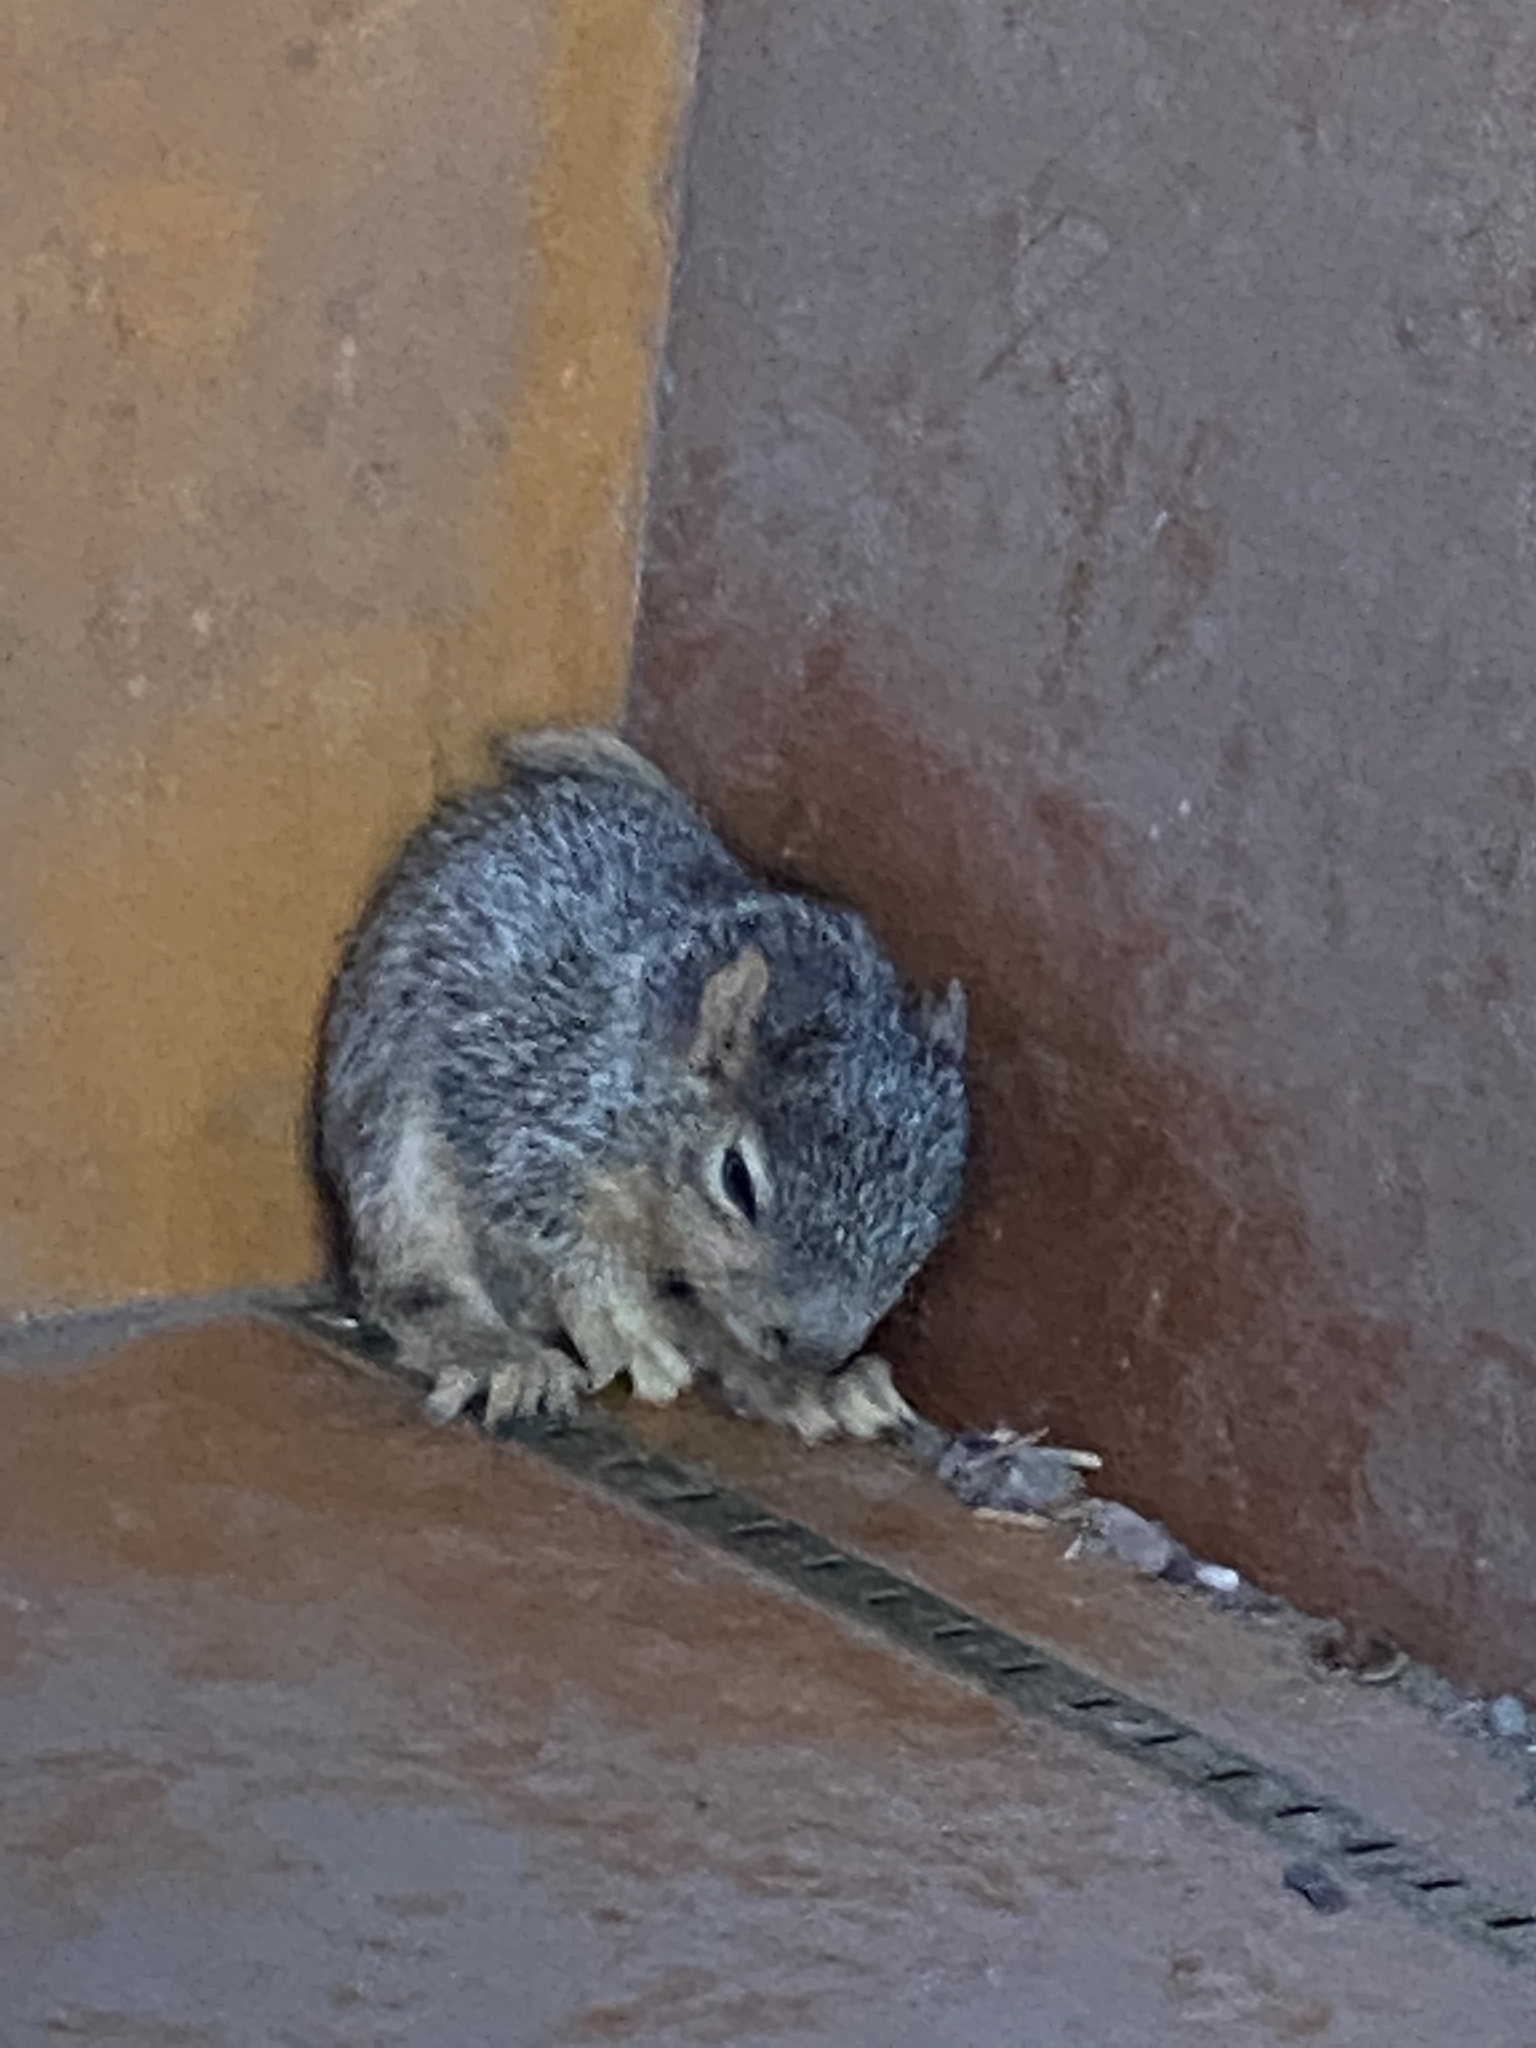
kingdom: Animalia
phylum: Chordata
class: Mammalia
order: Rodentia
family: Sciuridae
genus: Sciurus
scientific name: Sciurus niger
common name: Fox squirrel
